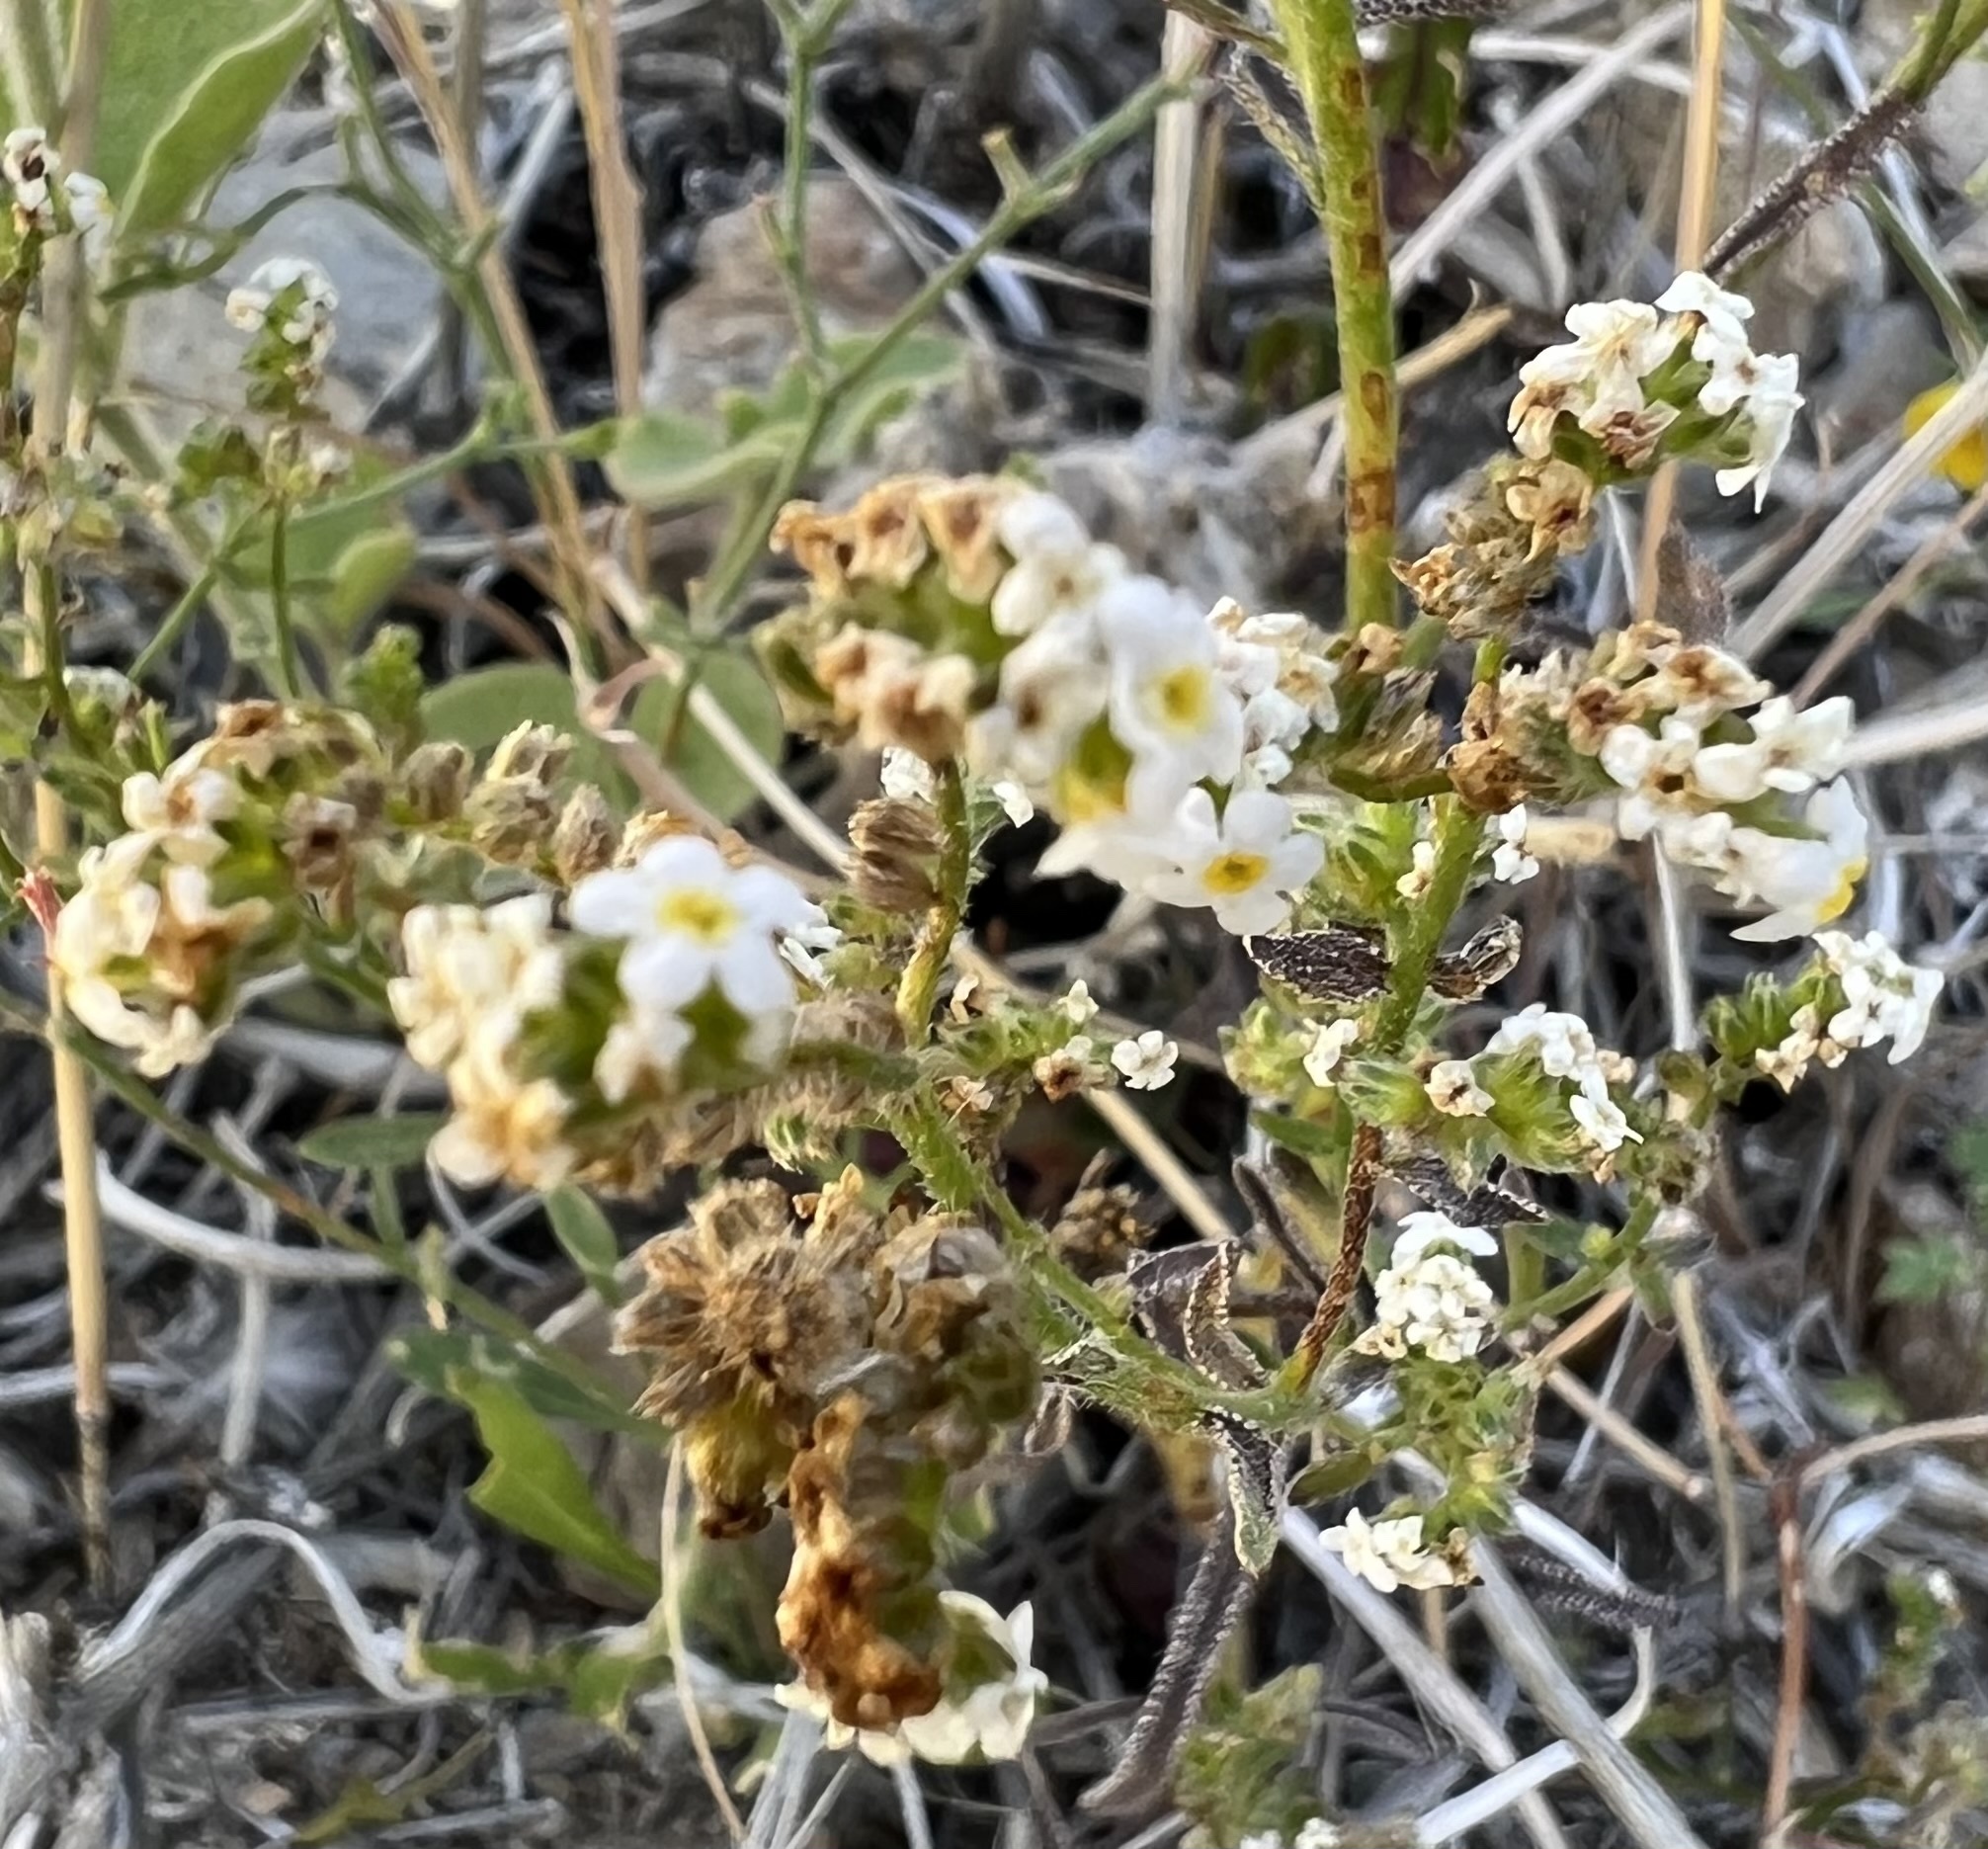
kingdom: Plantae
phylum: Tracheophyta
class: Magnoliopsida
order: Boraginales
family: Boraginaceae
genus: Cryptantha
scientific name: Cryptantha utahensis
